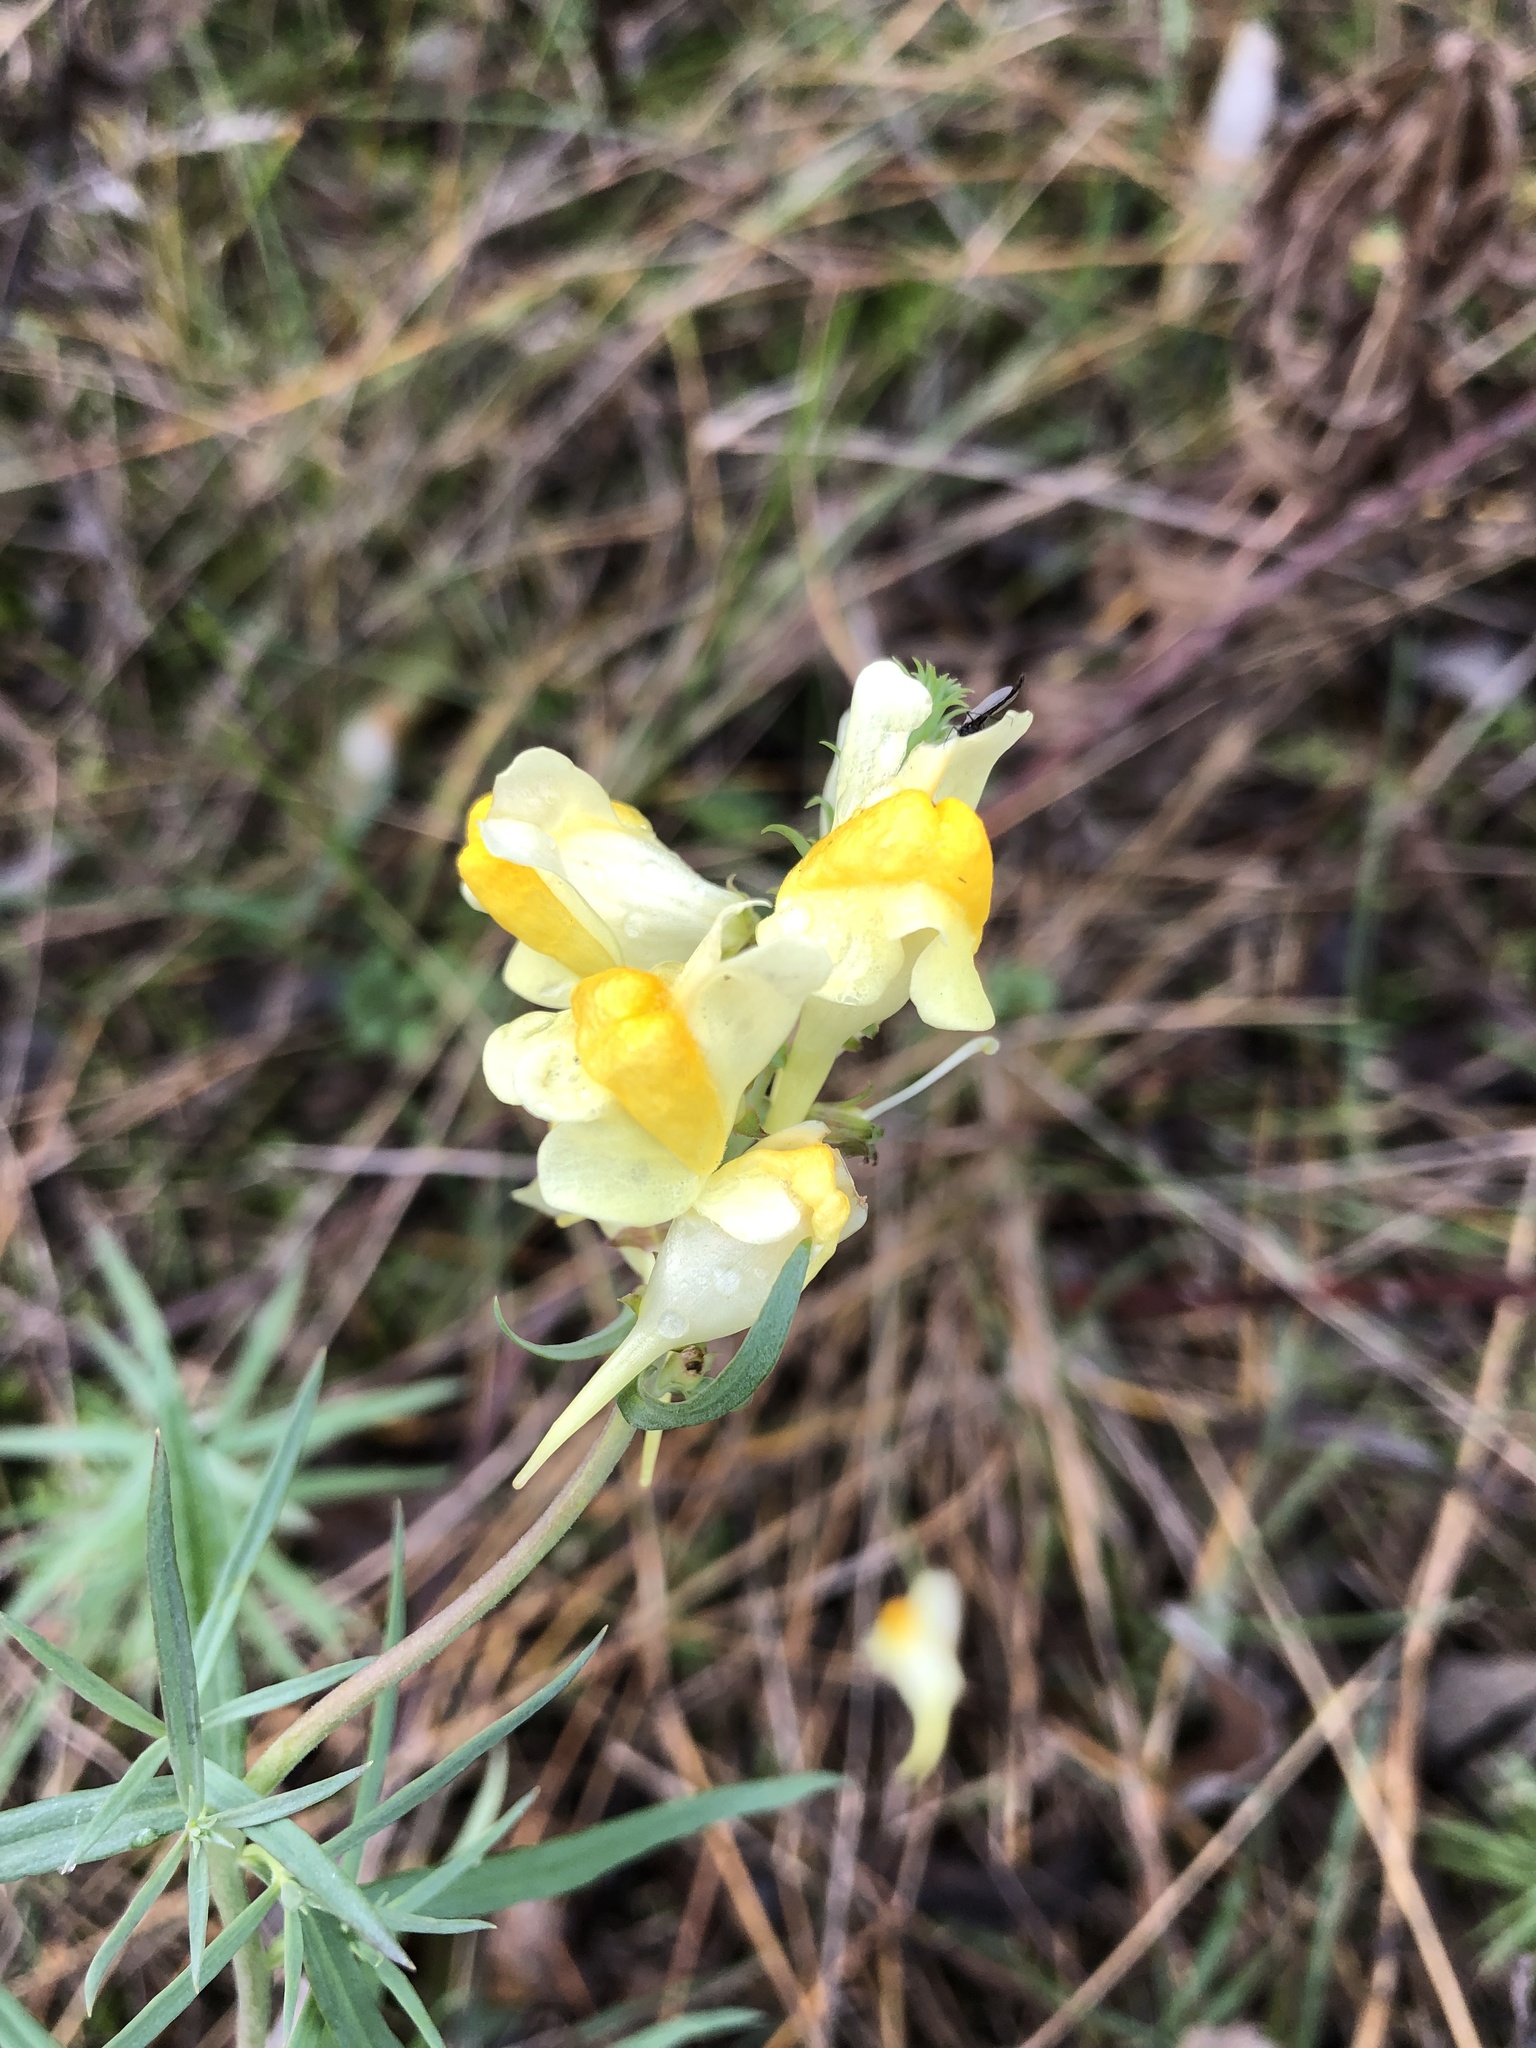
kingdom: Plantae
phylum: Tracheophyta
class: Magnoliopsida
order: Lamiales
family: Plantaginaceae
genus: Linaria
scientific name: Linaria vulgaris
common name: Butter and eggs
